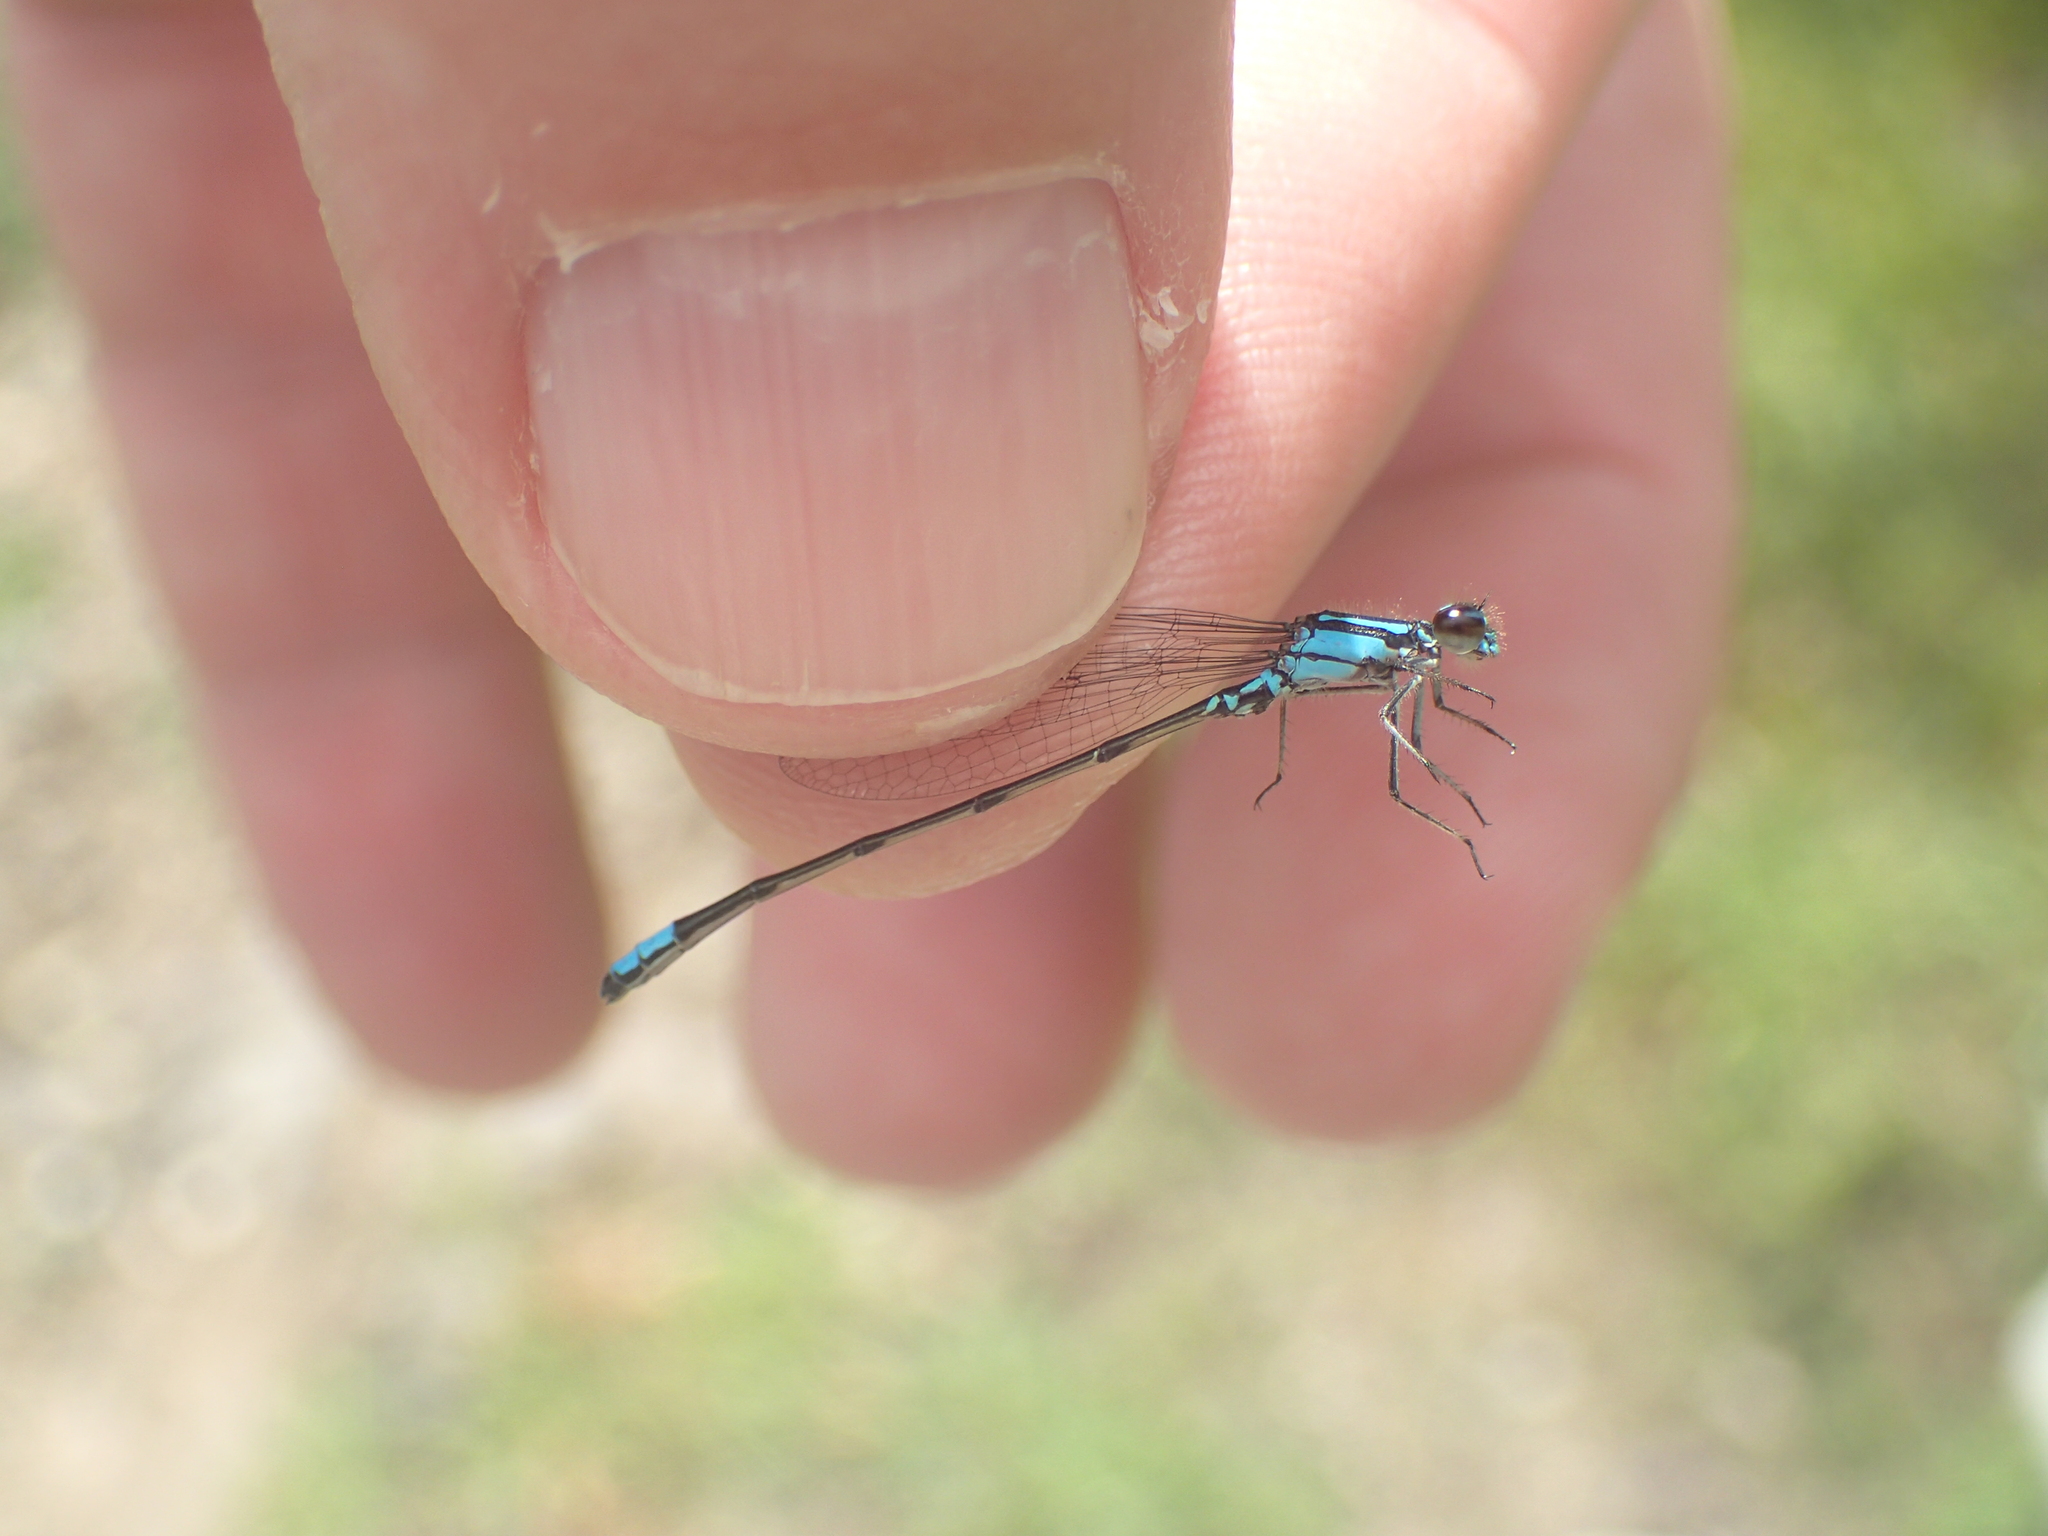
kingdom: Animalia
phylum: Arthropoda
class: Insecta
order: Odonata
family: Coenagrionidae
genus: Enallagma
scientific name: Enallagma geminatum
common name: Skimming bluet
